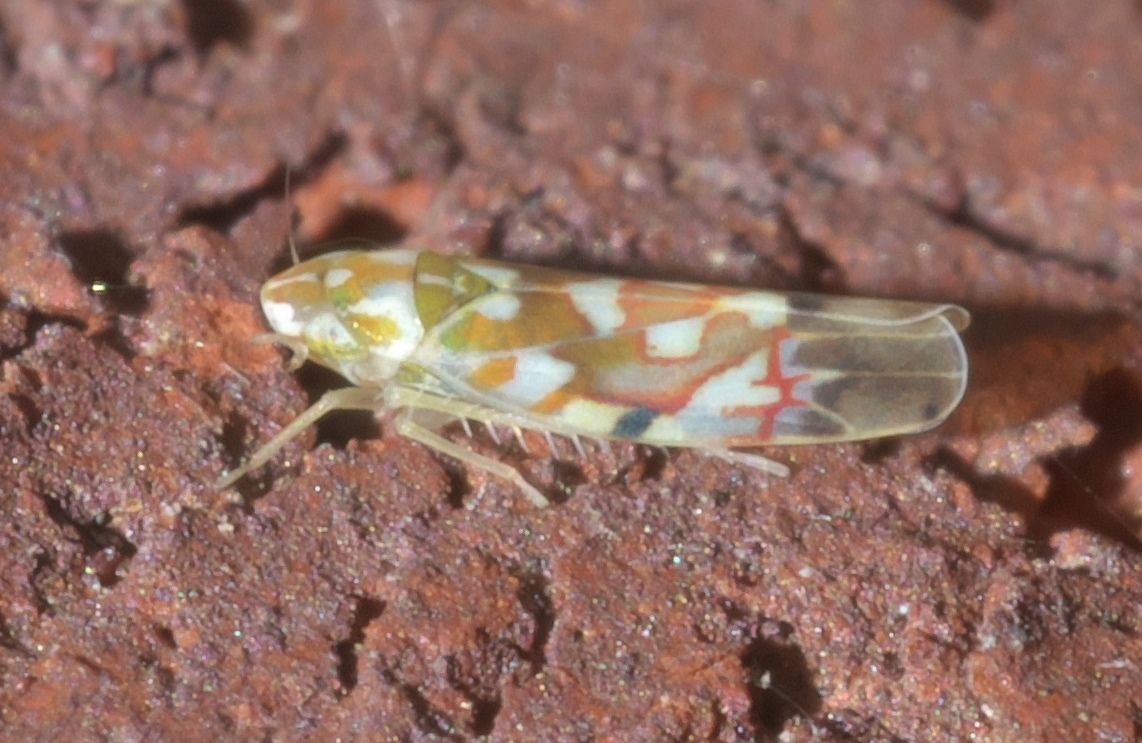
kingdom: Animalia
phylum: Arthropoda
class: Insecta
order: Hemiptera
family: Cicadellidae
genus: Erythroneura
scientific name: Erythroneura reflecta
